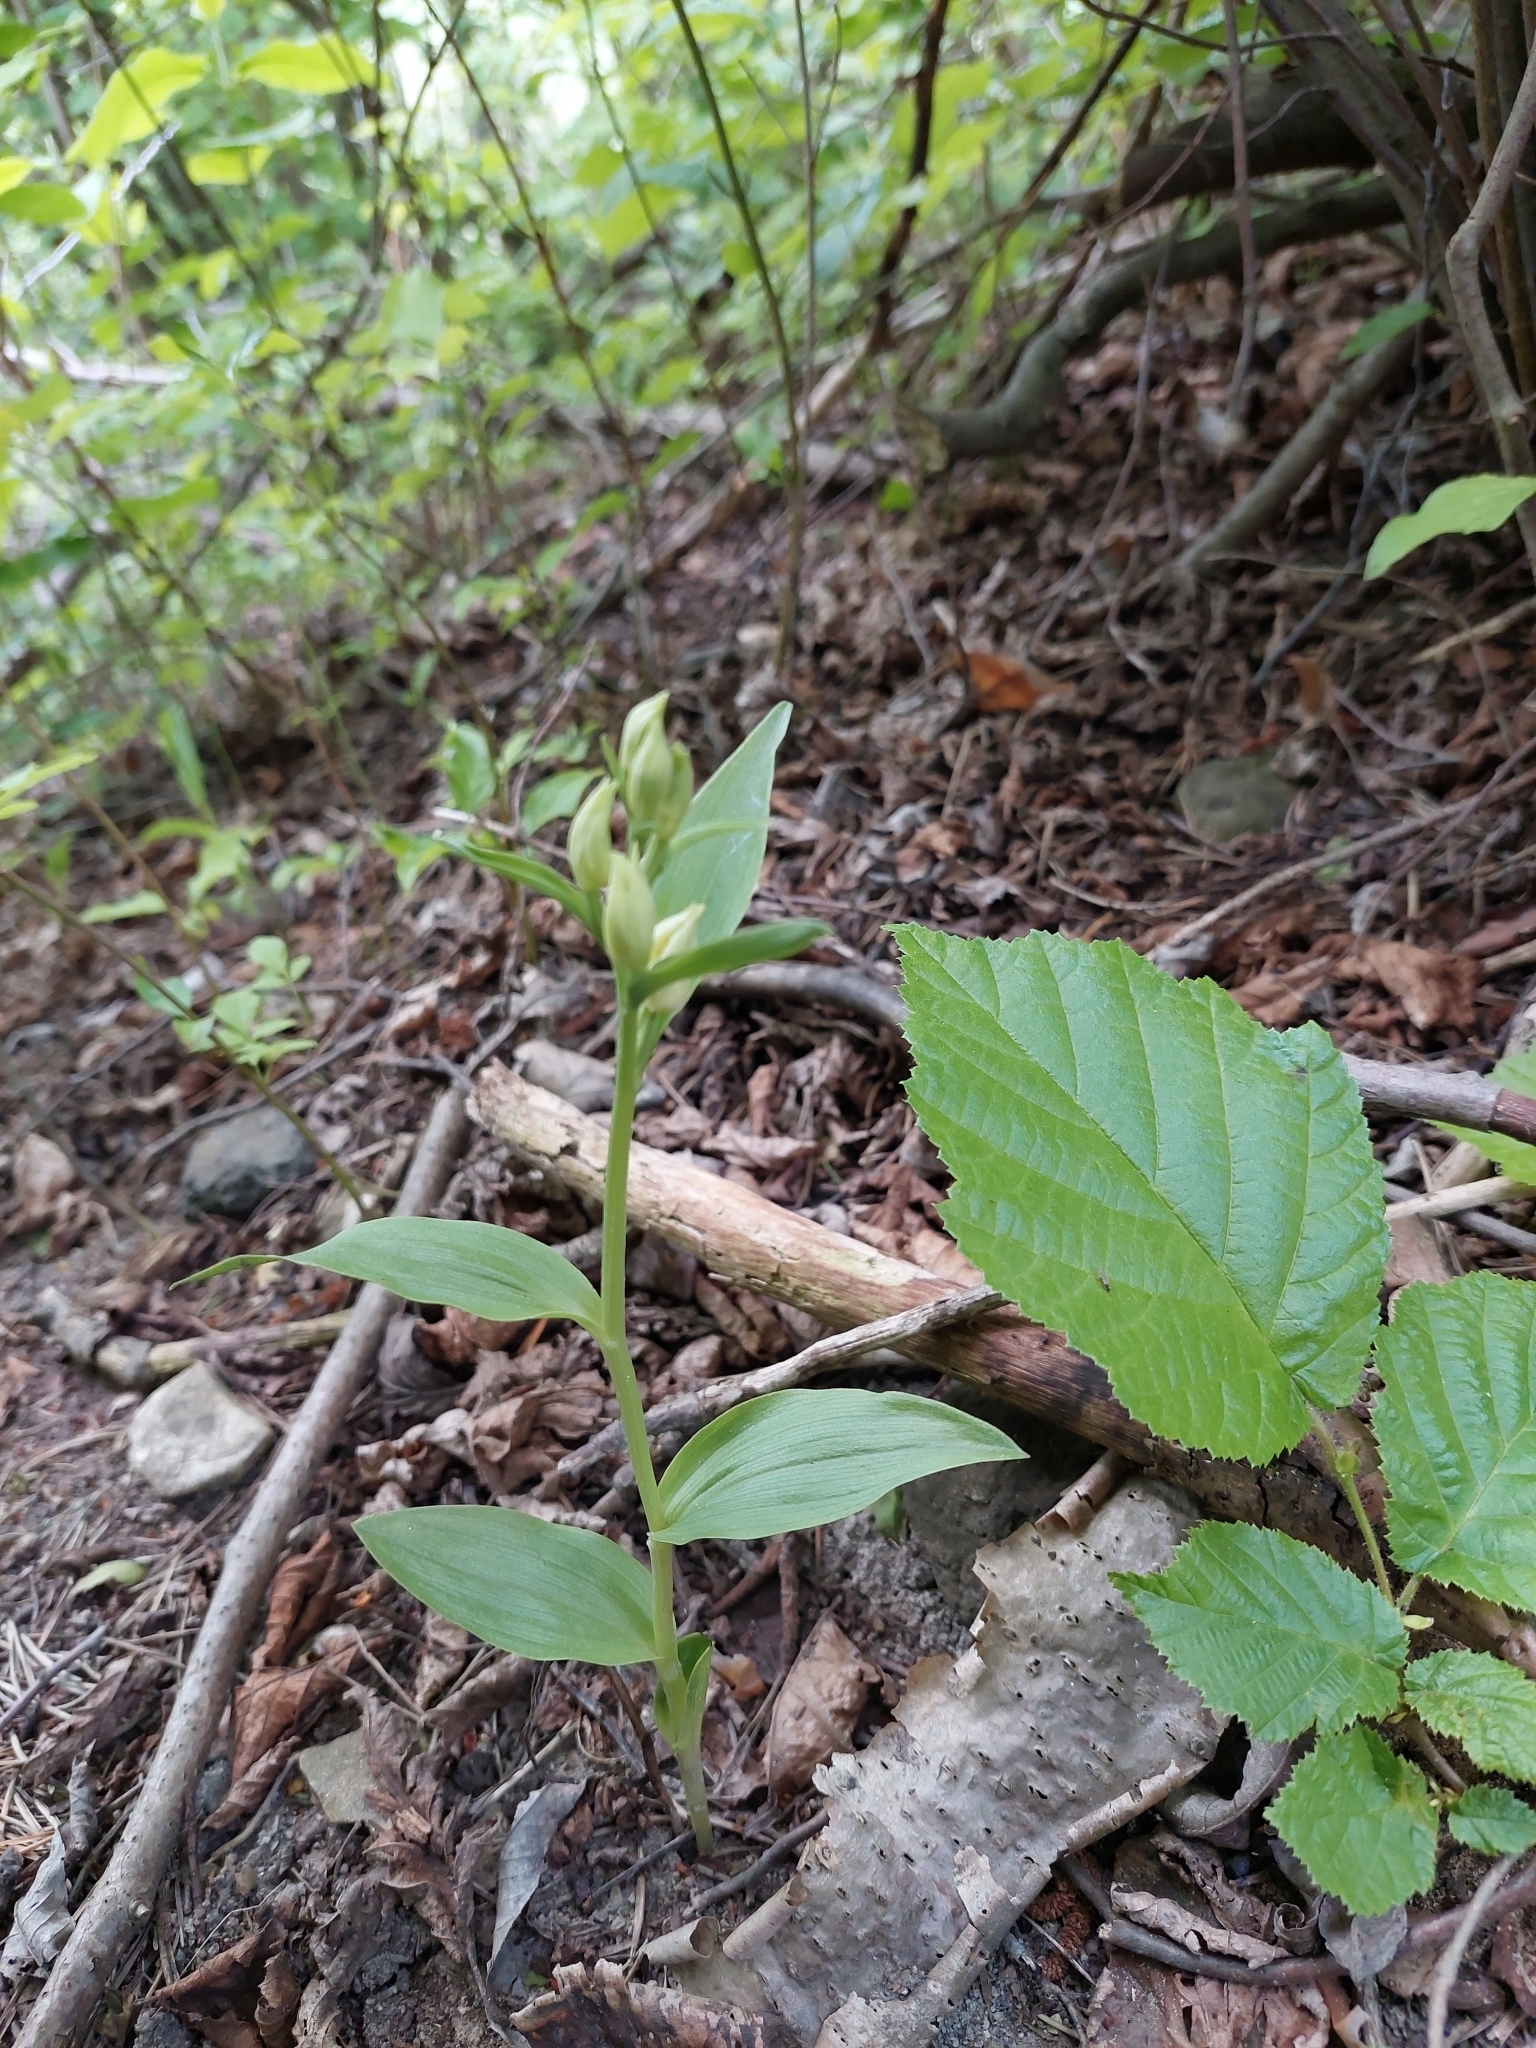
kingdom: Plantae
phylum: Tracheophyta
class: Liliopsida
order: Asparagales
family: Orchidaceae
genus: Cephalanthera
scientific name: Cephalanthera damasonium
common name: White helleborine
